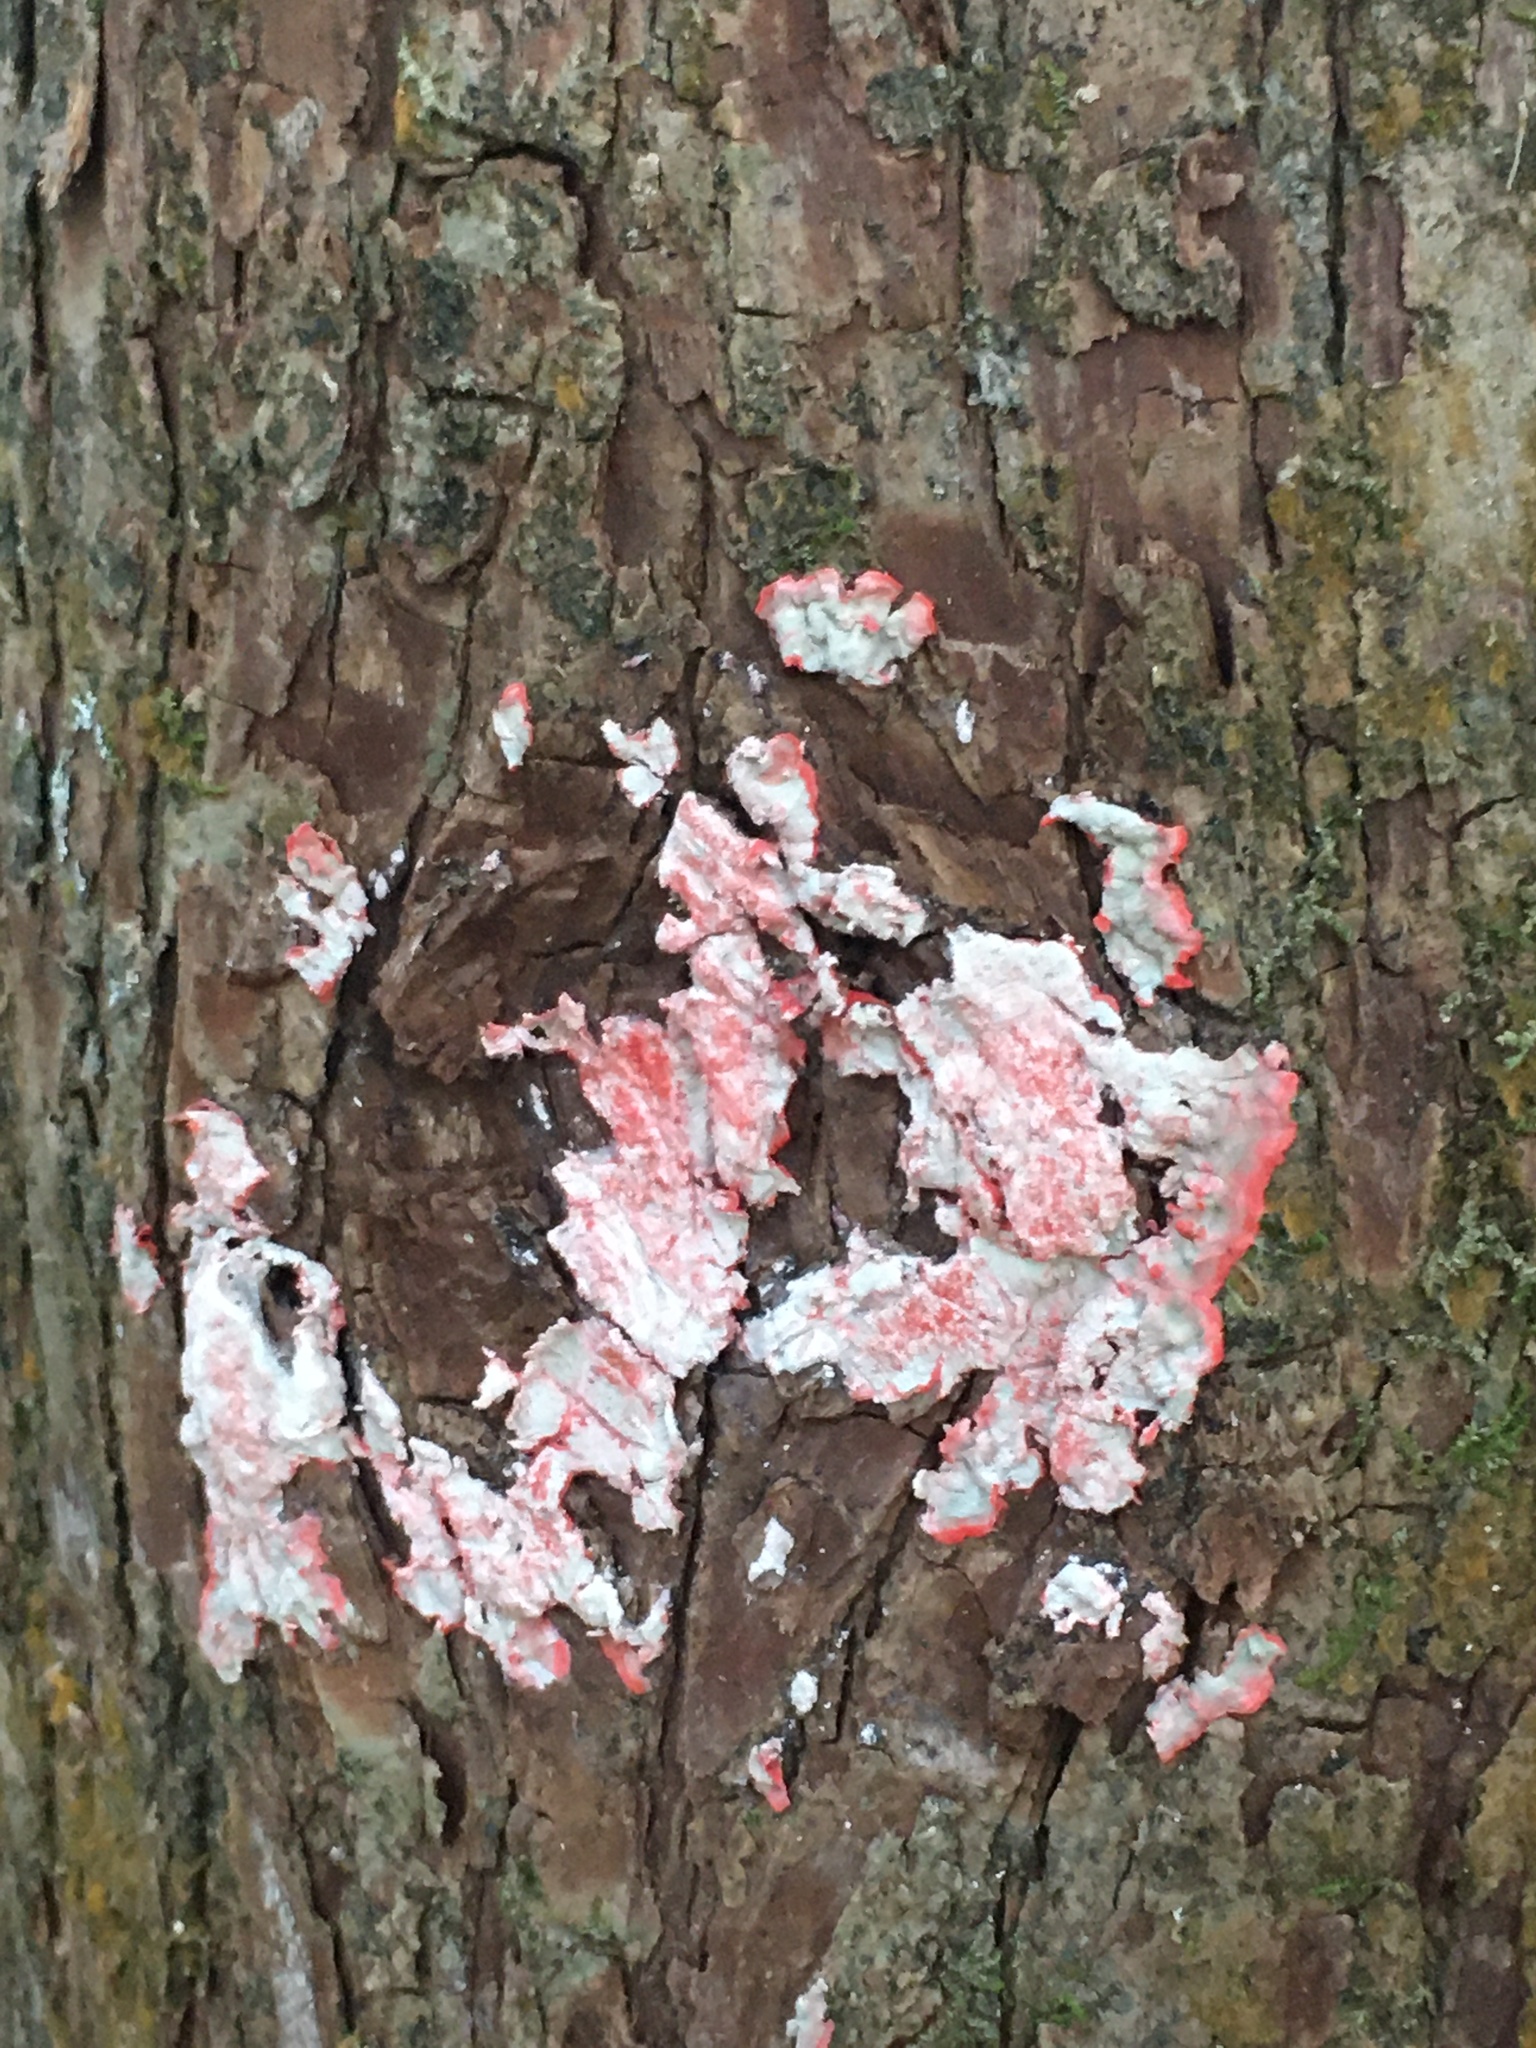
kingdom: Fungi
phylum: Ascomycota
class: Arthoniomycetes
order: Arthoniales
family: Arthoniaceae
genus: Herpothallon
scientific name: Herpothallon rubrocinctum
